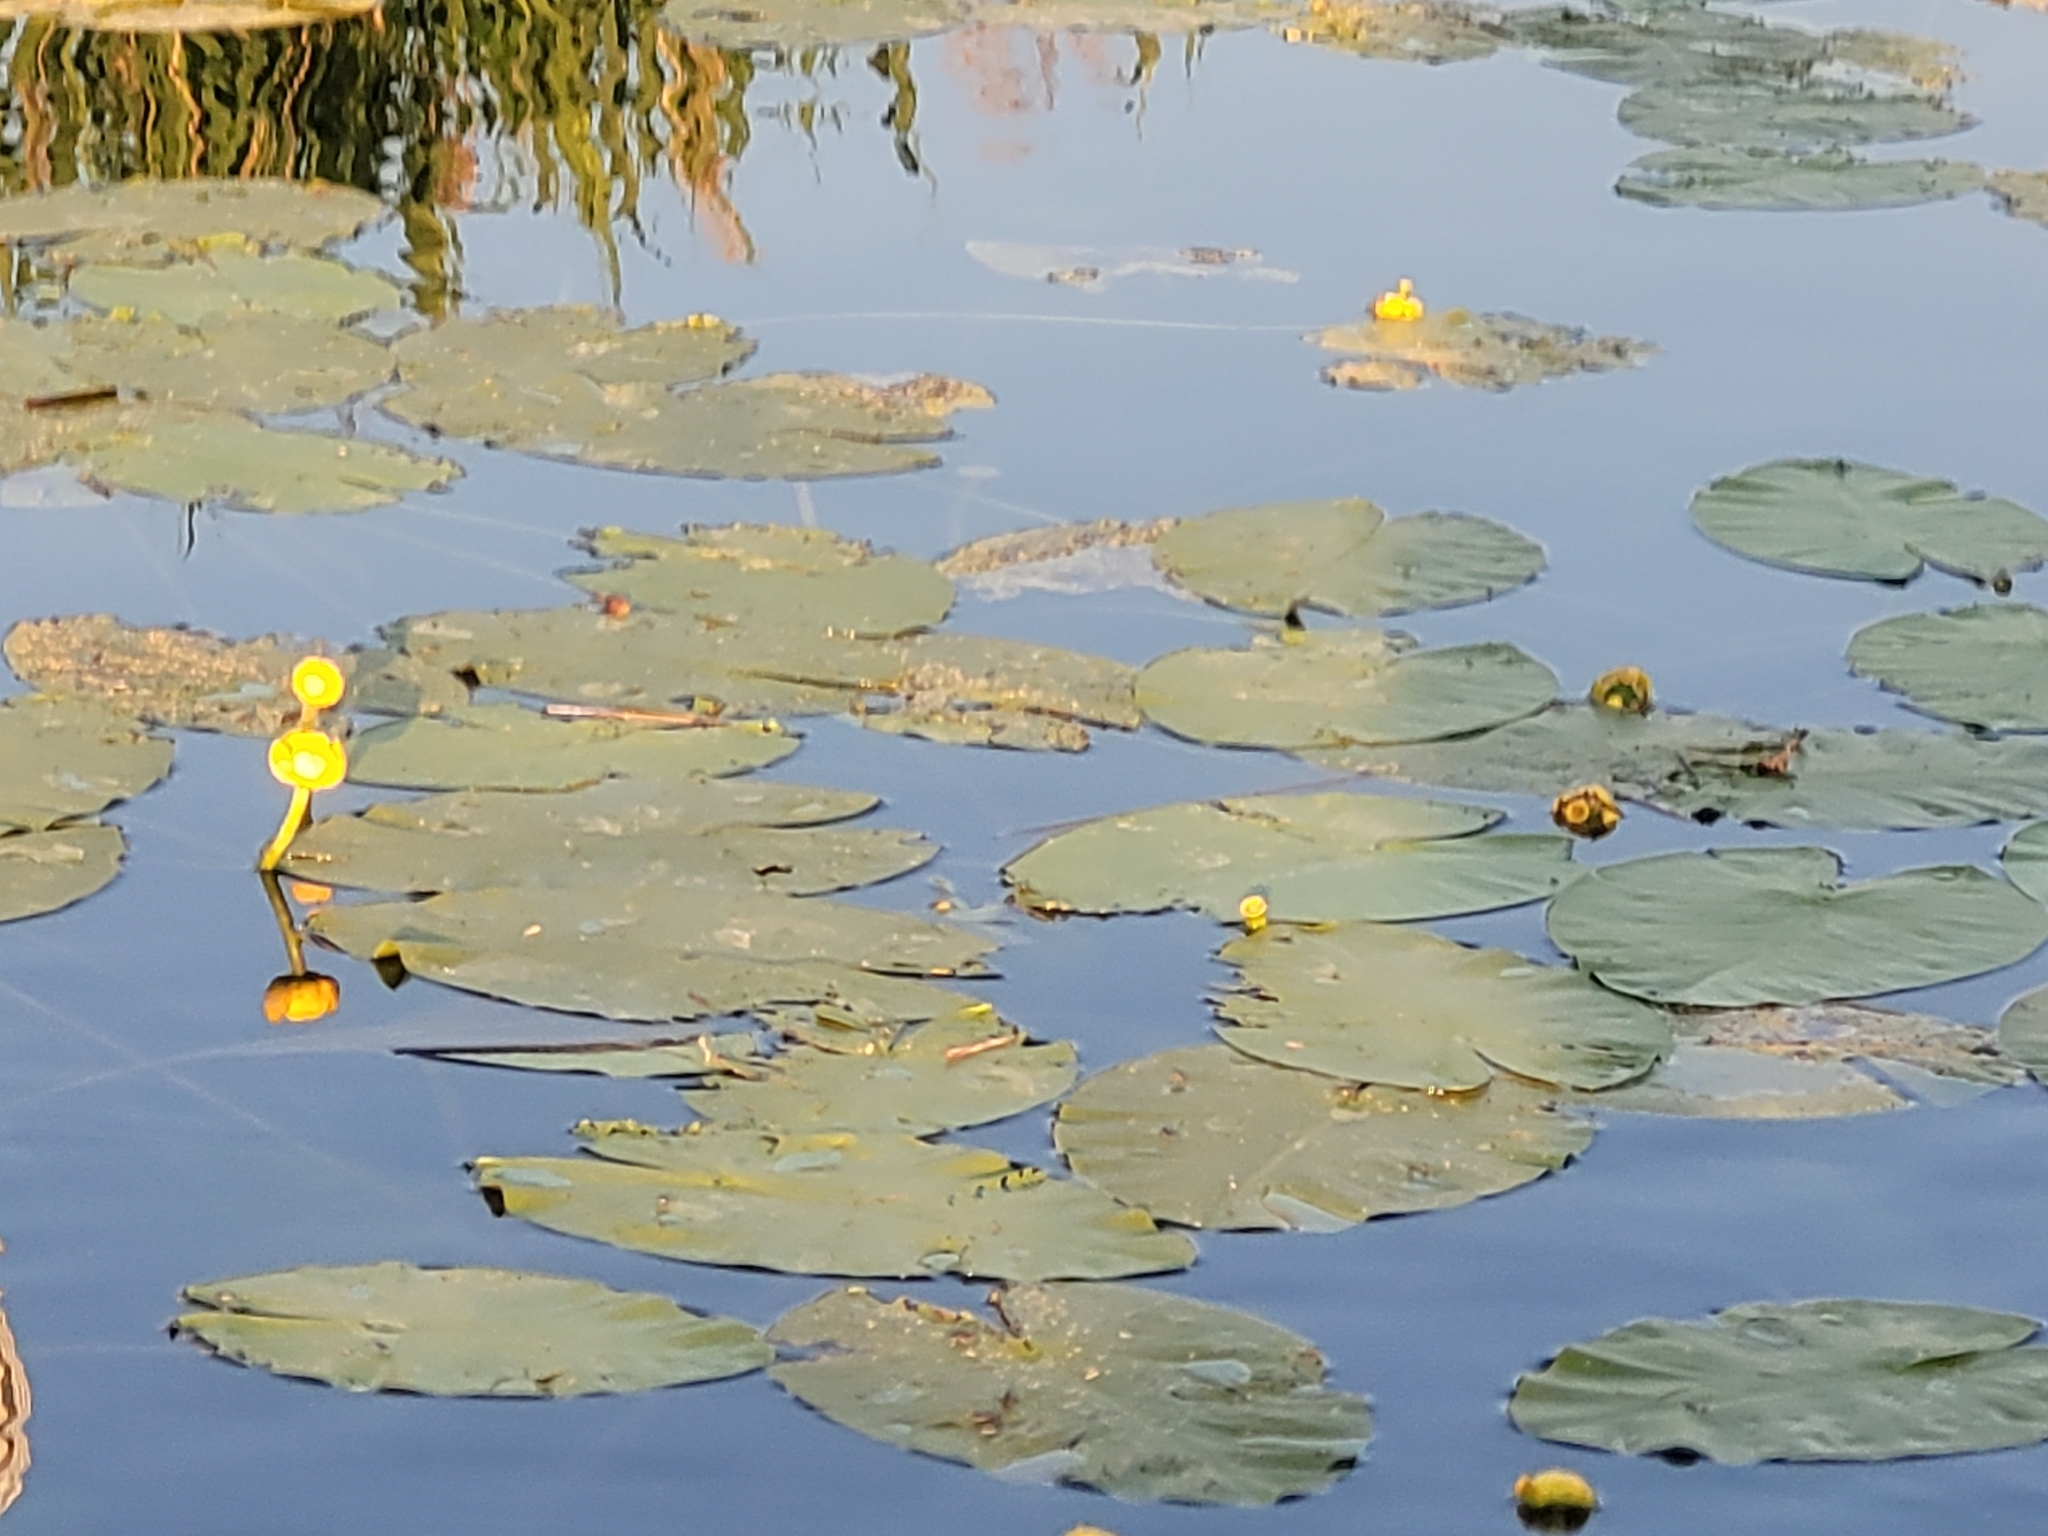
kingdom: Plantae
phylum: Tracheophyta
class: Magnoliopsida
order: Nymphaeales
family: Nymphaeaceae
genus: Nuphar
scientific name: Nuphar lutea
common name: Yellow water-lily
